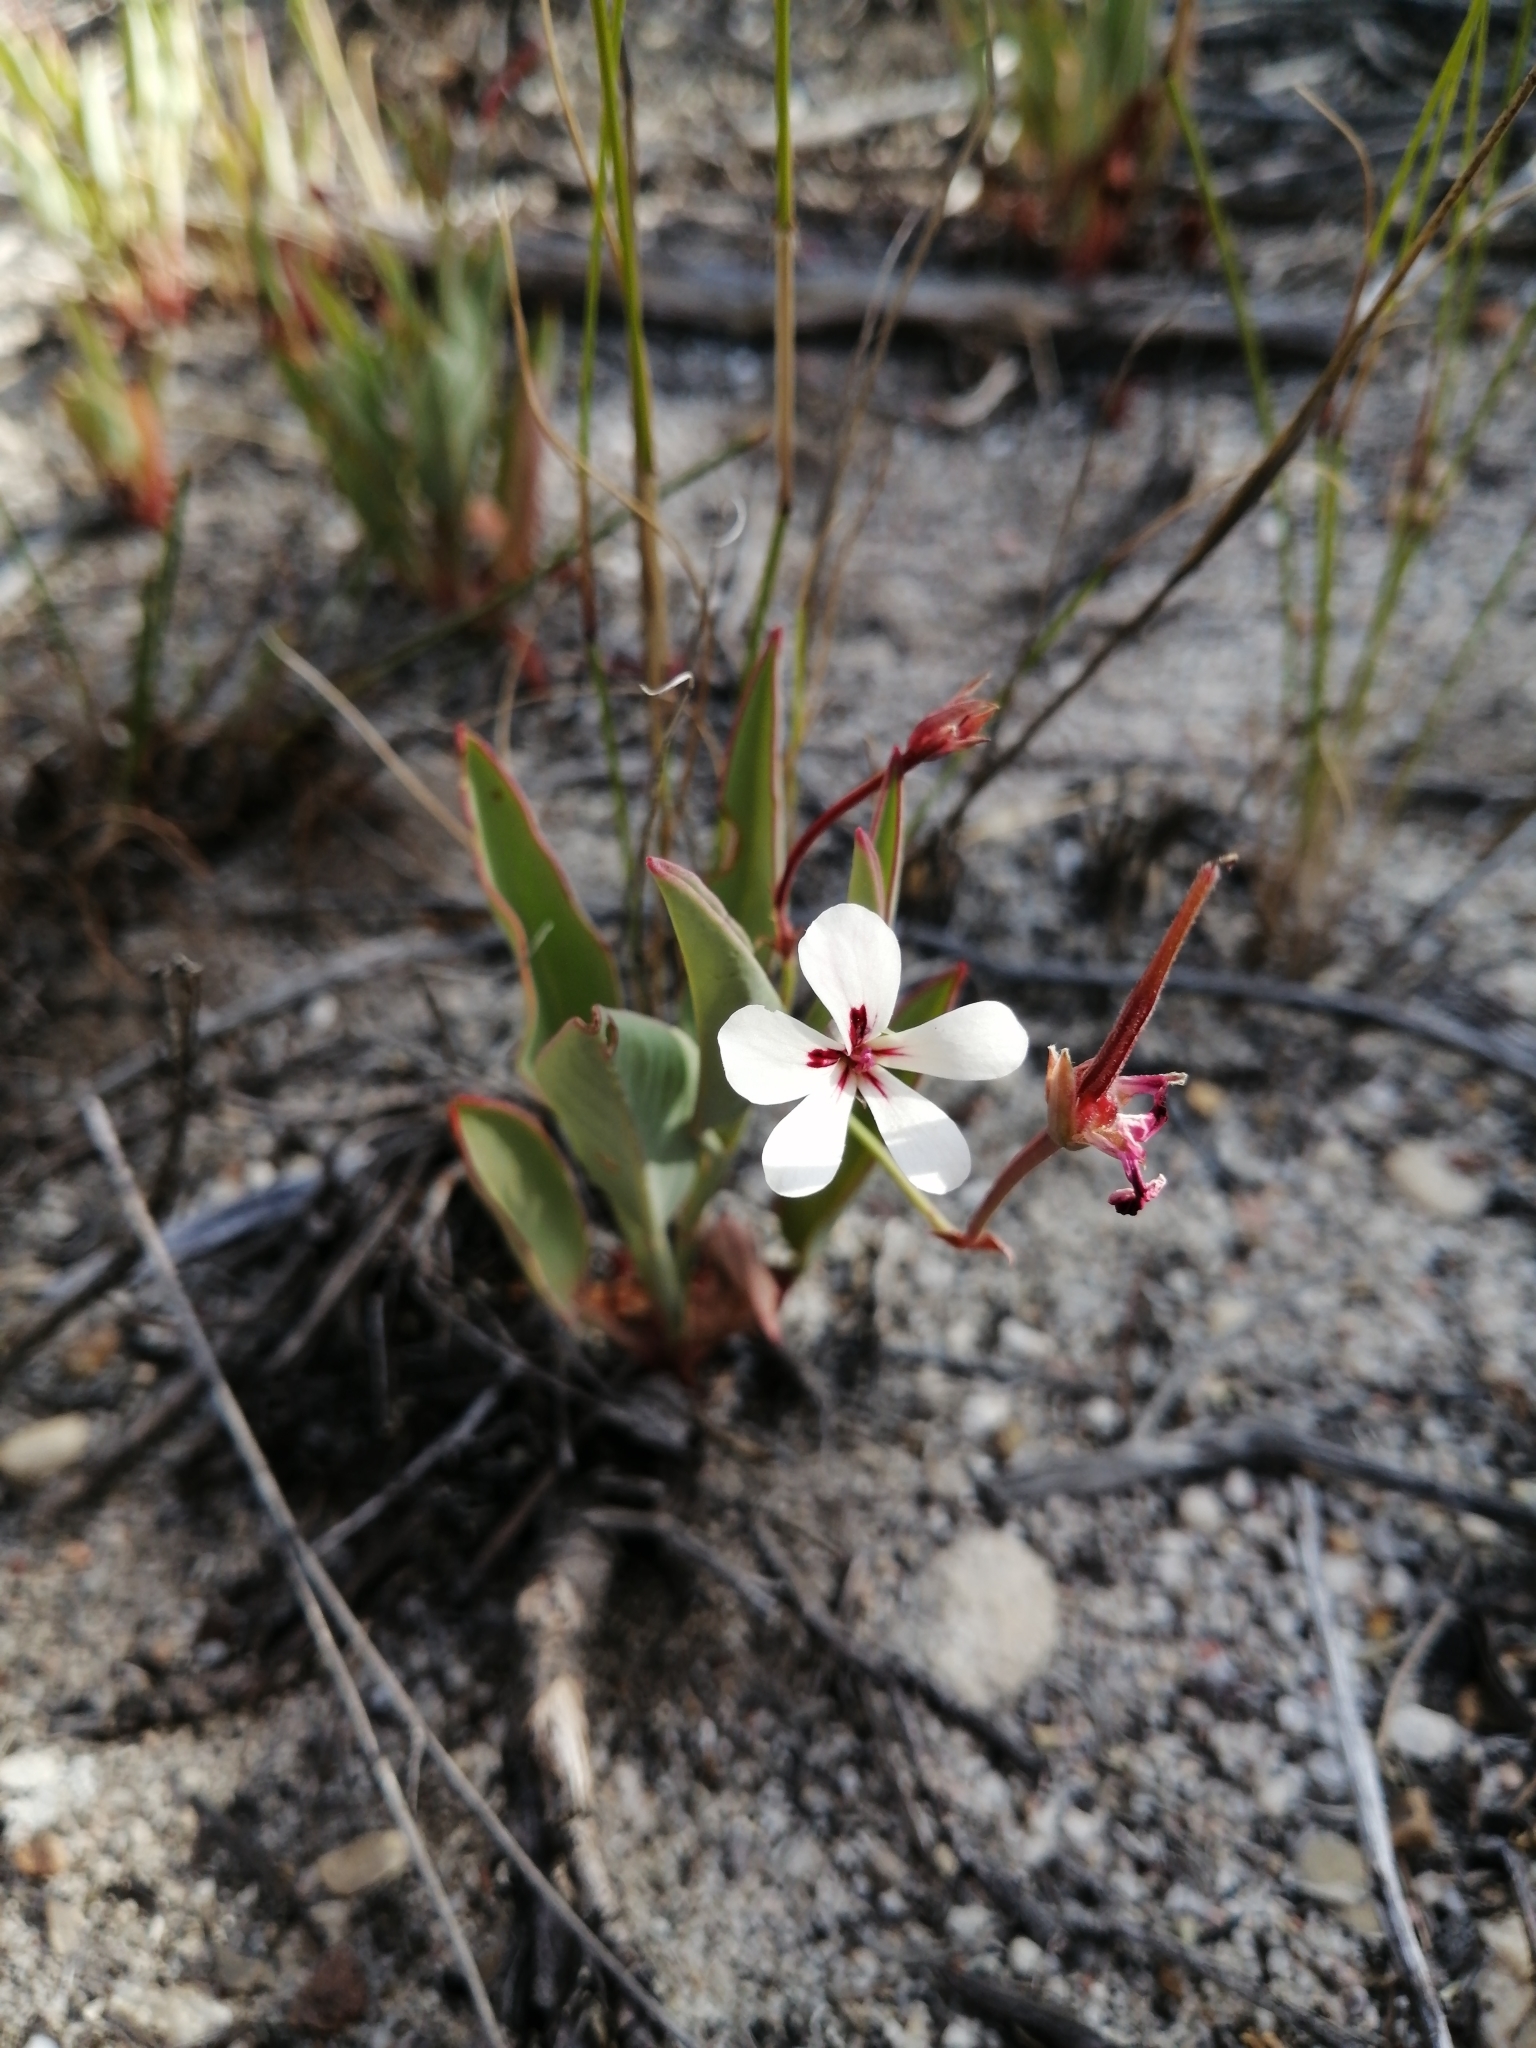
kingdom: Plantae
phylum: Tracheophyta
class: Magnoliopsida
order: Geraniales
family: Geraniaceae
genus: Pelargonium
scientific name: Pelargonium lanceolatum
